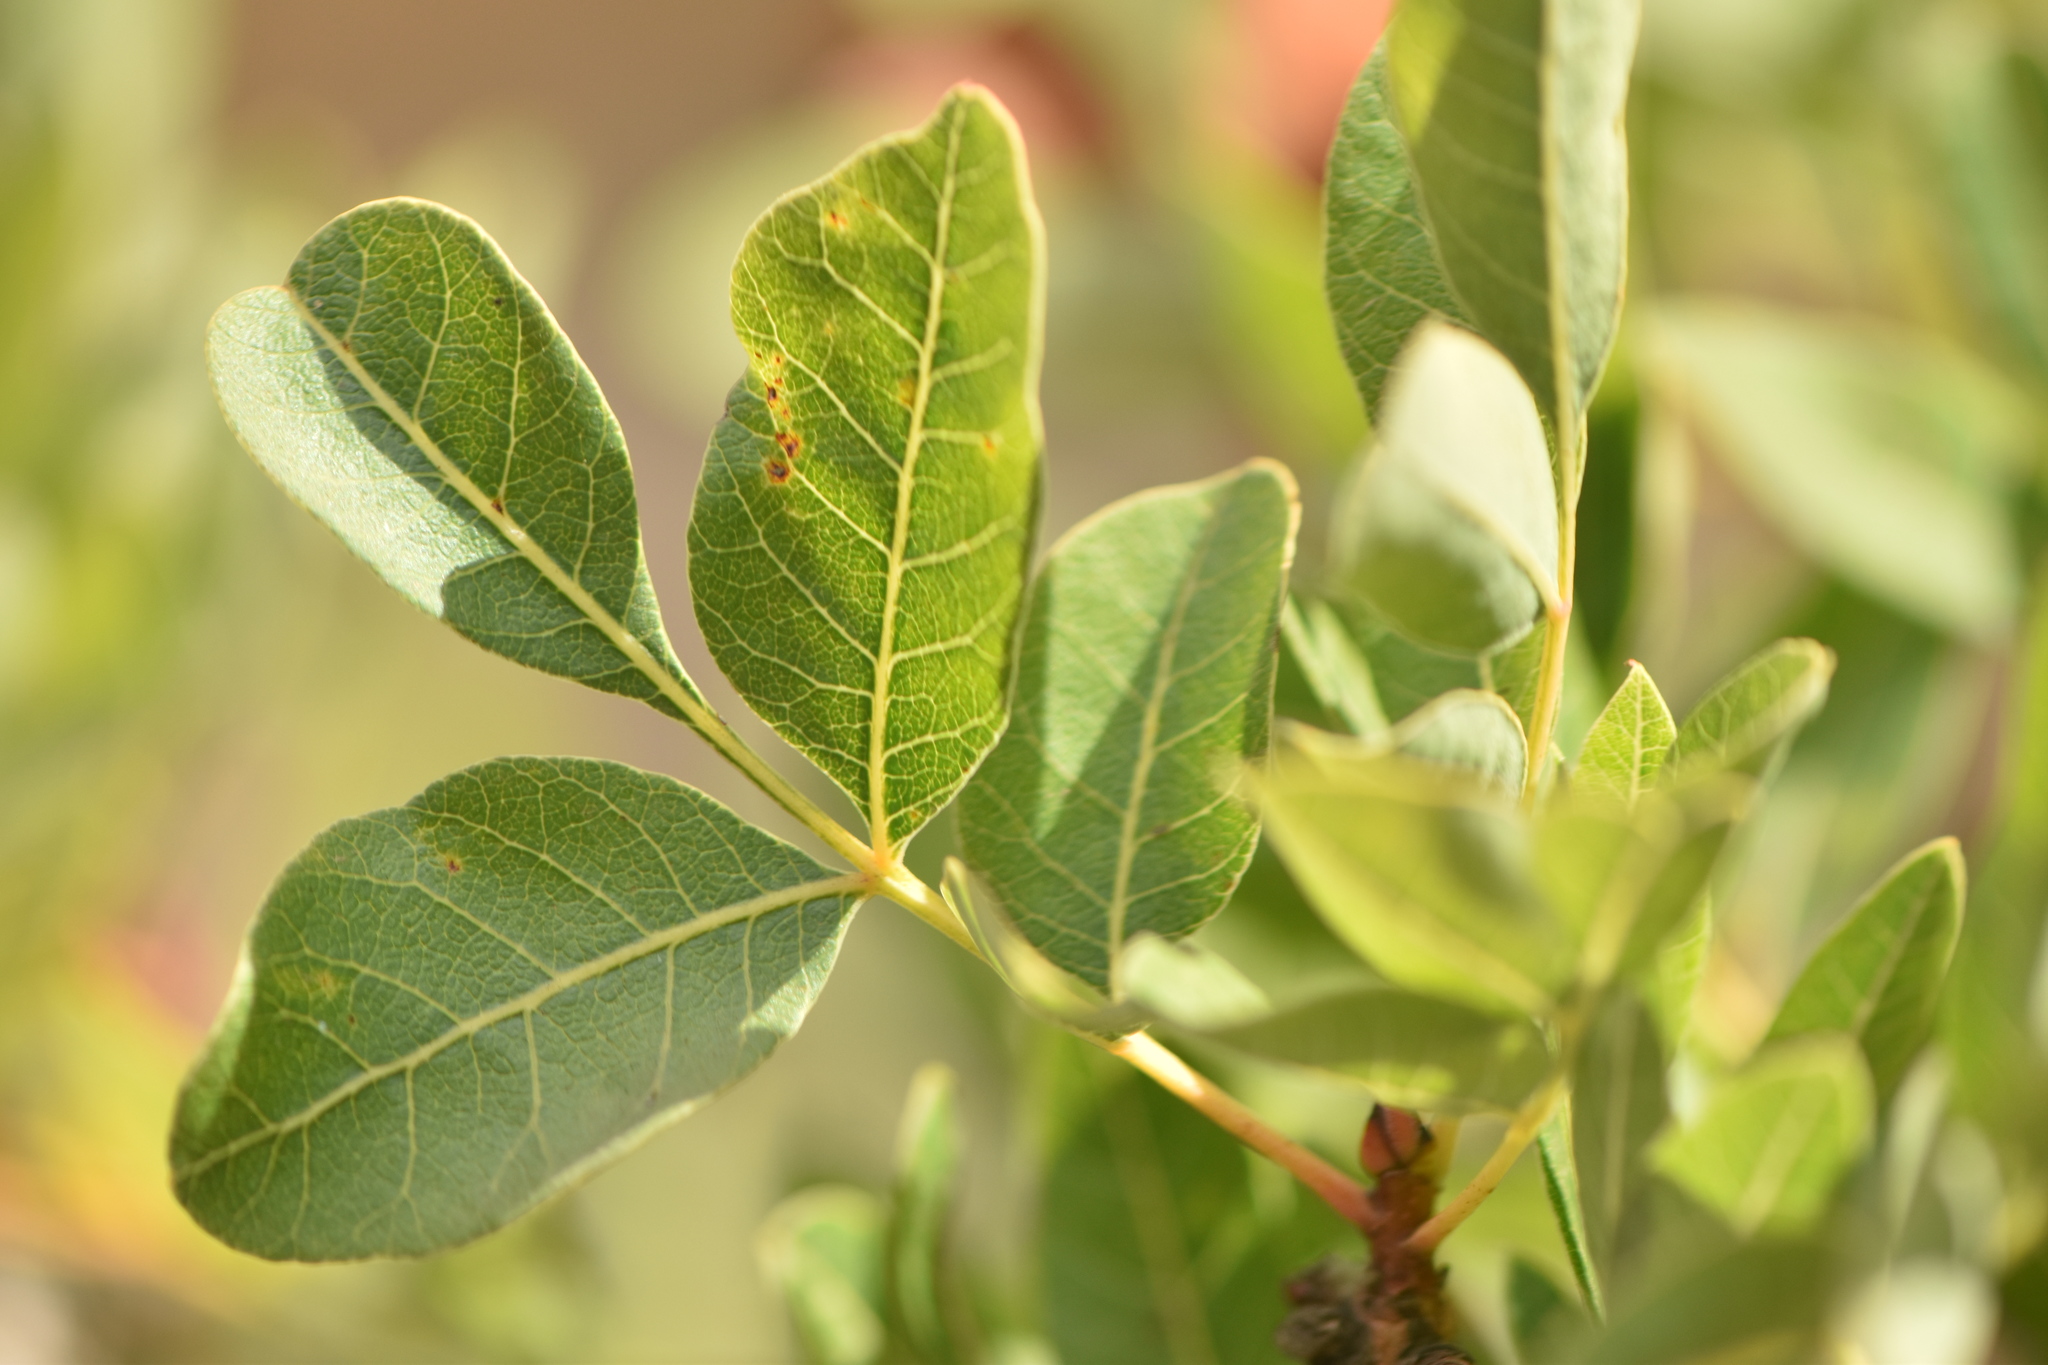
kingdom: Plantae
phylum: Tracheophyta
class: Magnoliopsida
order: Sapindales
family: Anacardiaceae
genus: Pistacia
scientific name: Pistacia lentiscus
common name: Lentisk
